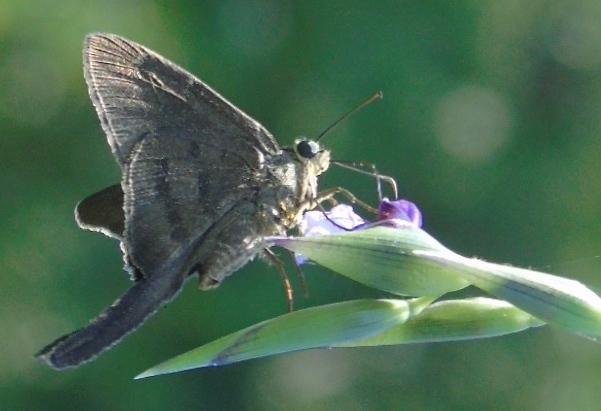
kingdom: Animalia
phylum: Arthropoda
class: Insecta
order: Lepidoptera
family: Hesperiidae
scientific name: Hesperiidae
